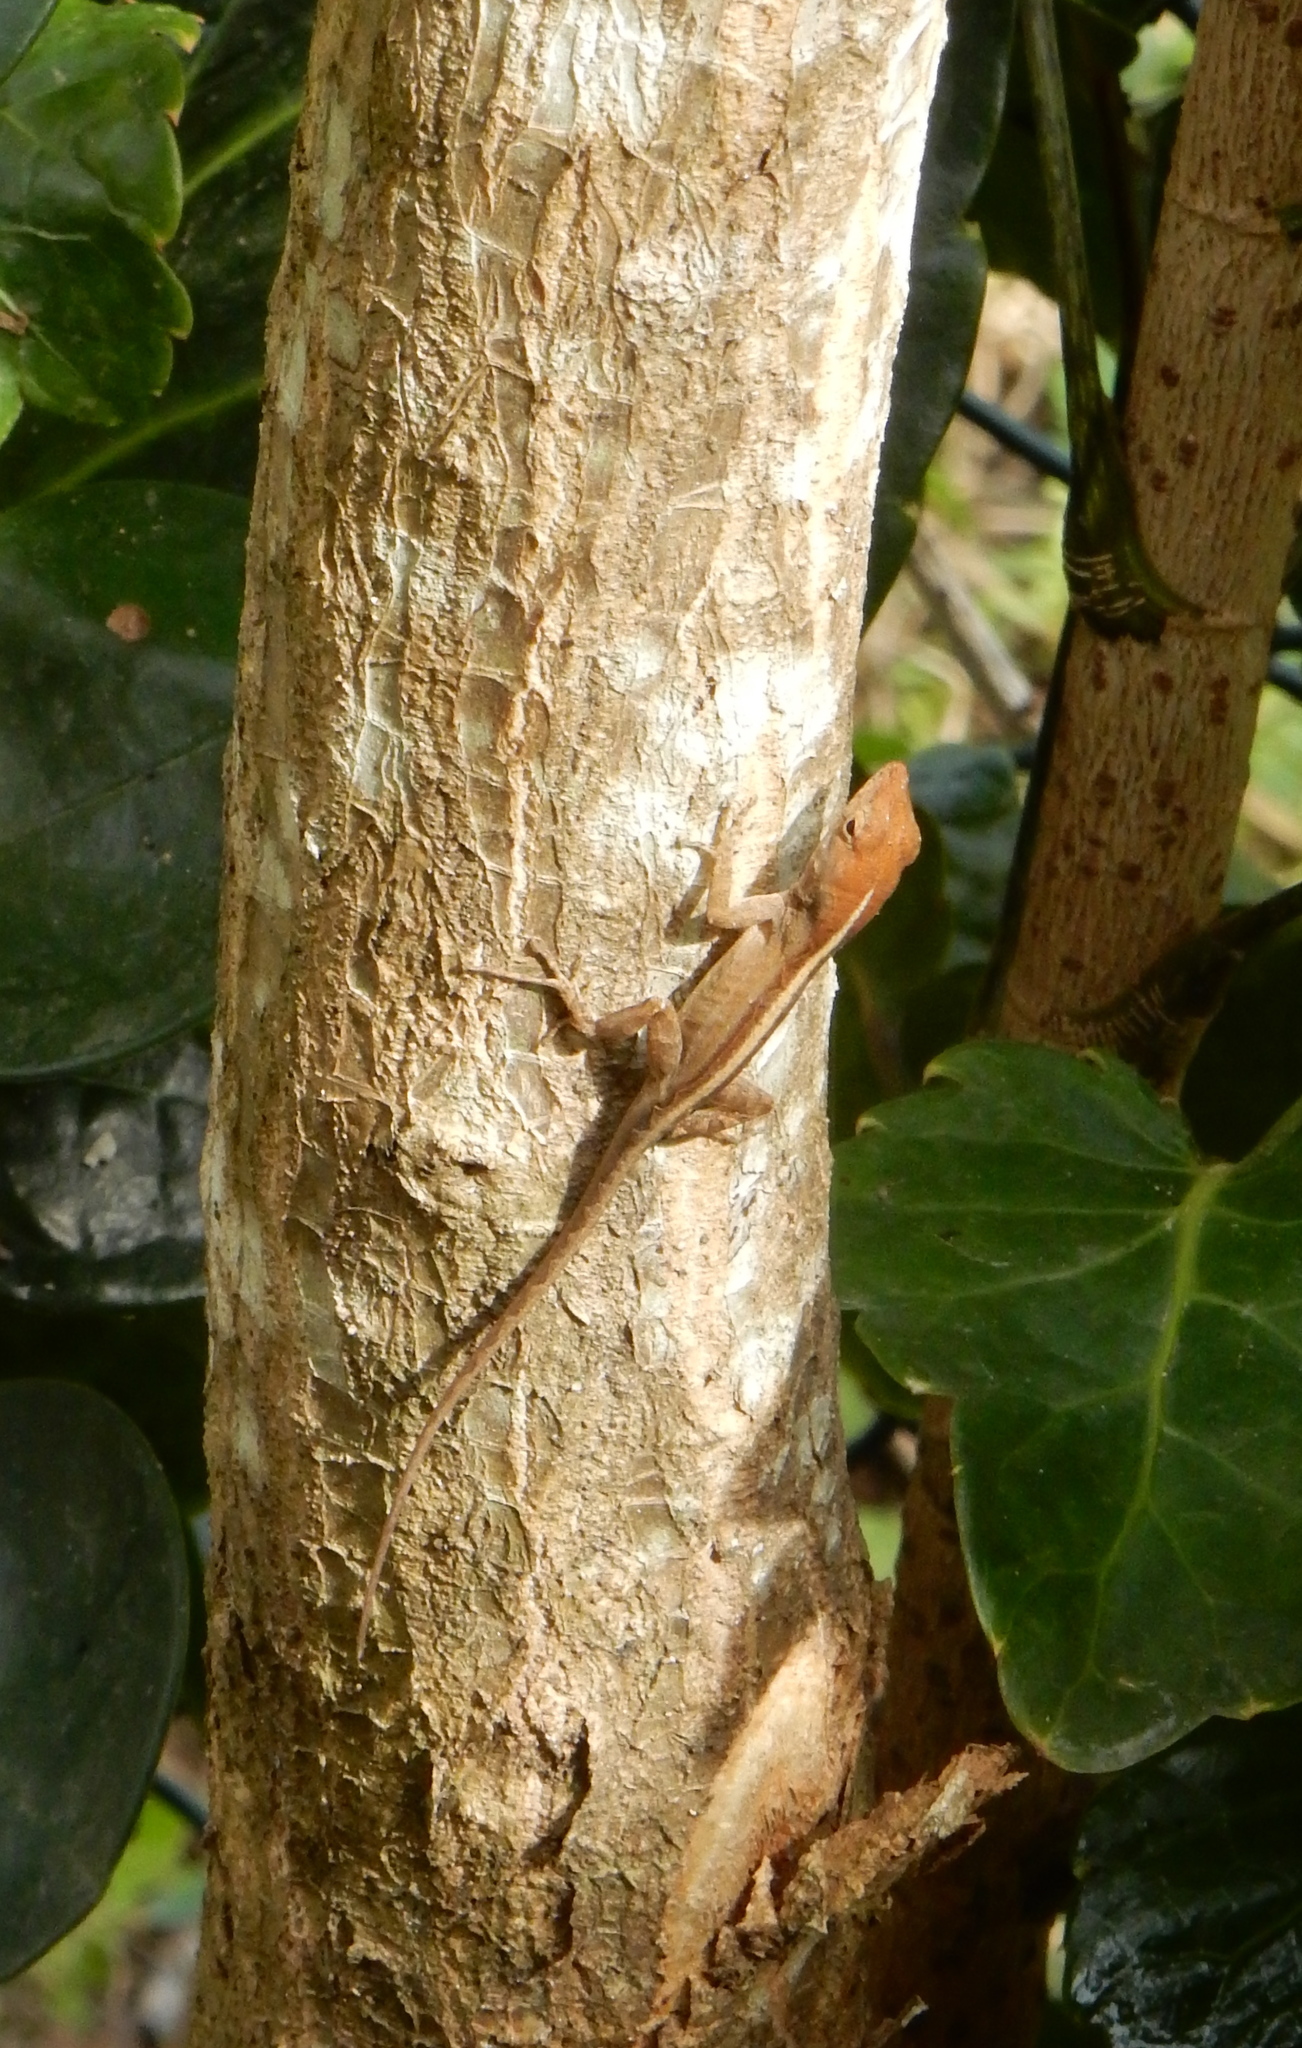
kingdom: Animalia
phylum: Chordata
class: Squamata
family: Dactyloidae
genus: Anolis
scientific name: Anolis sagrei
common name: Brown anole
